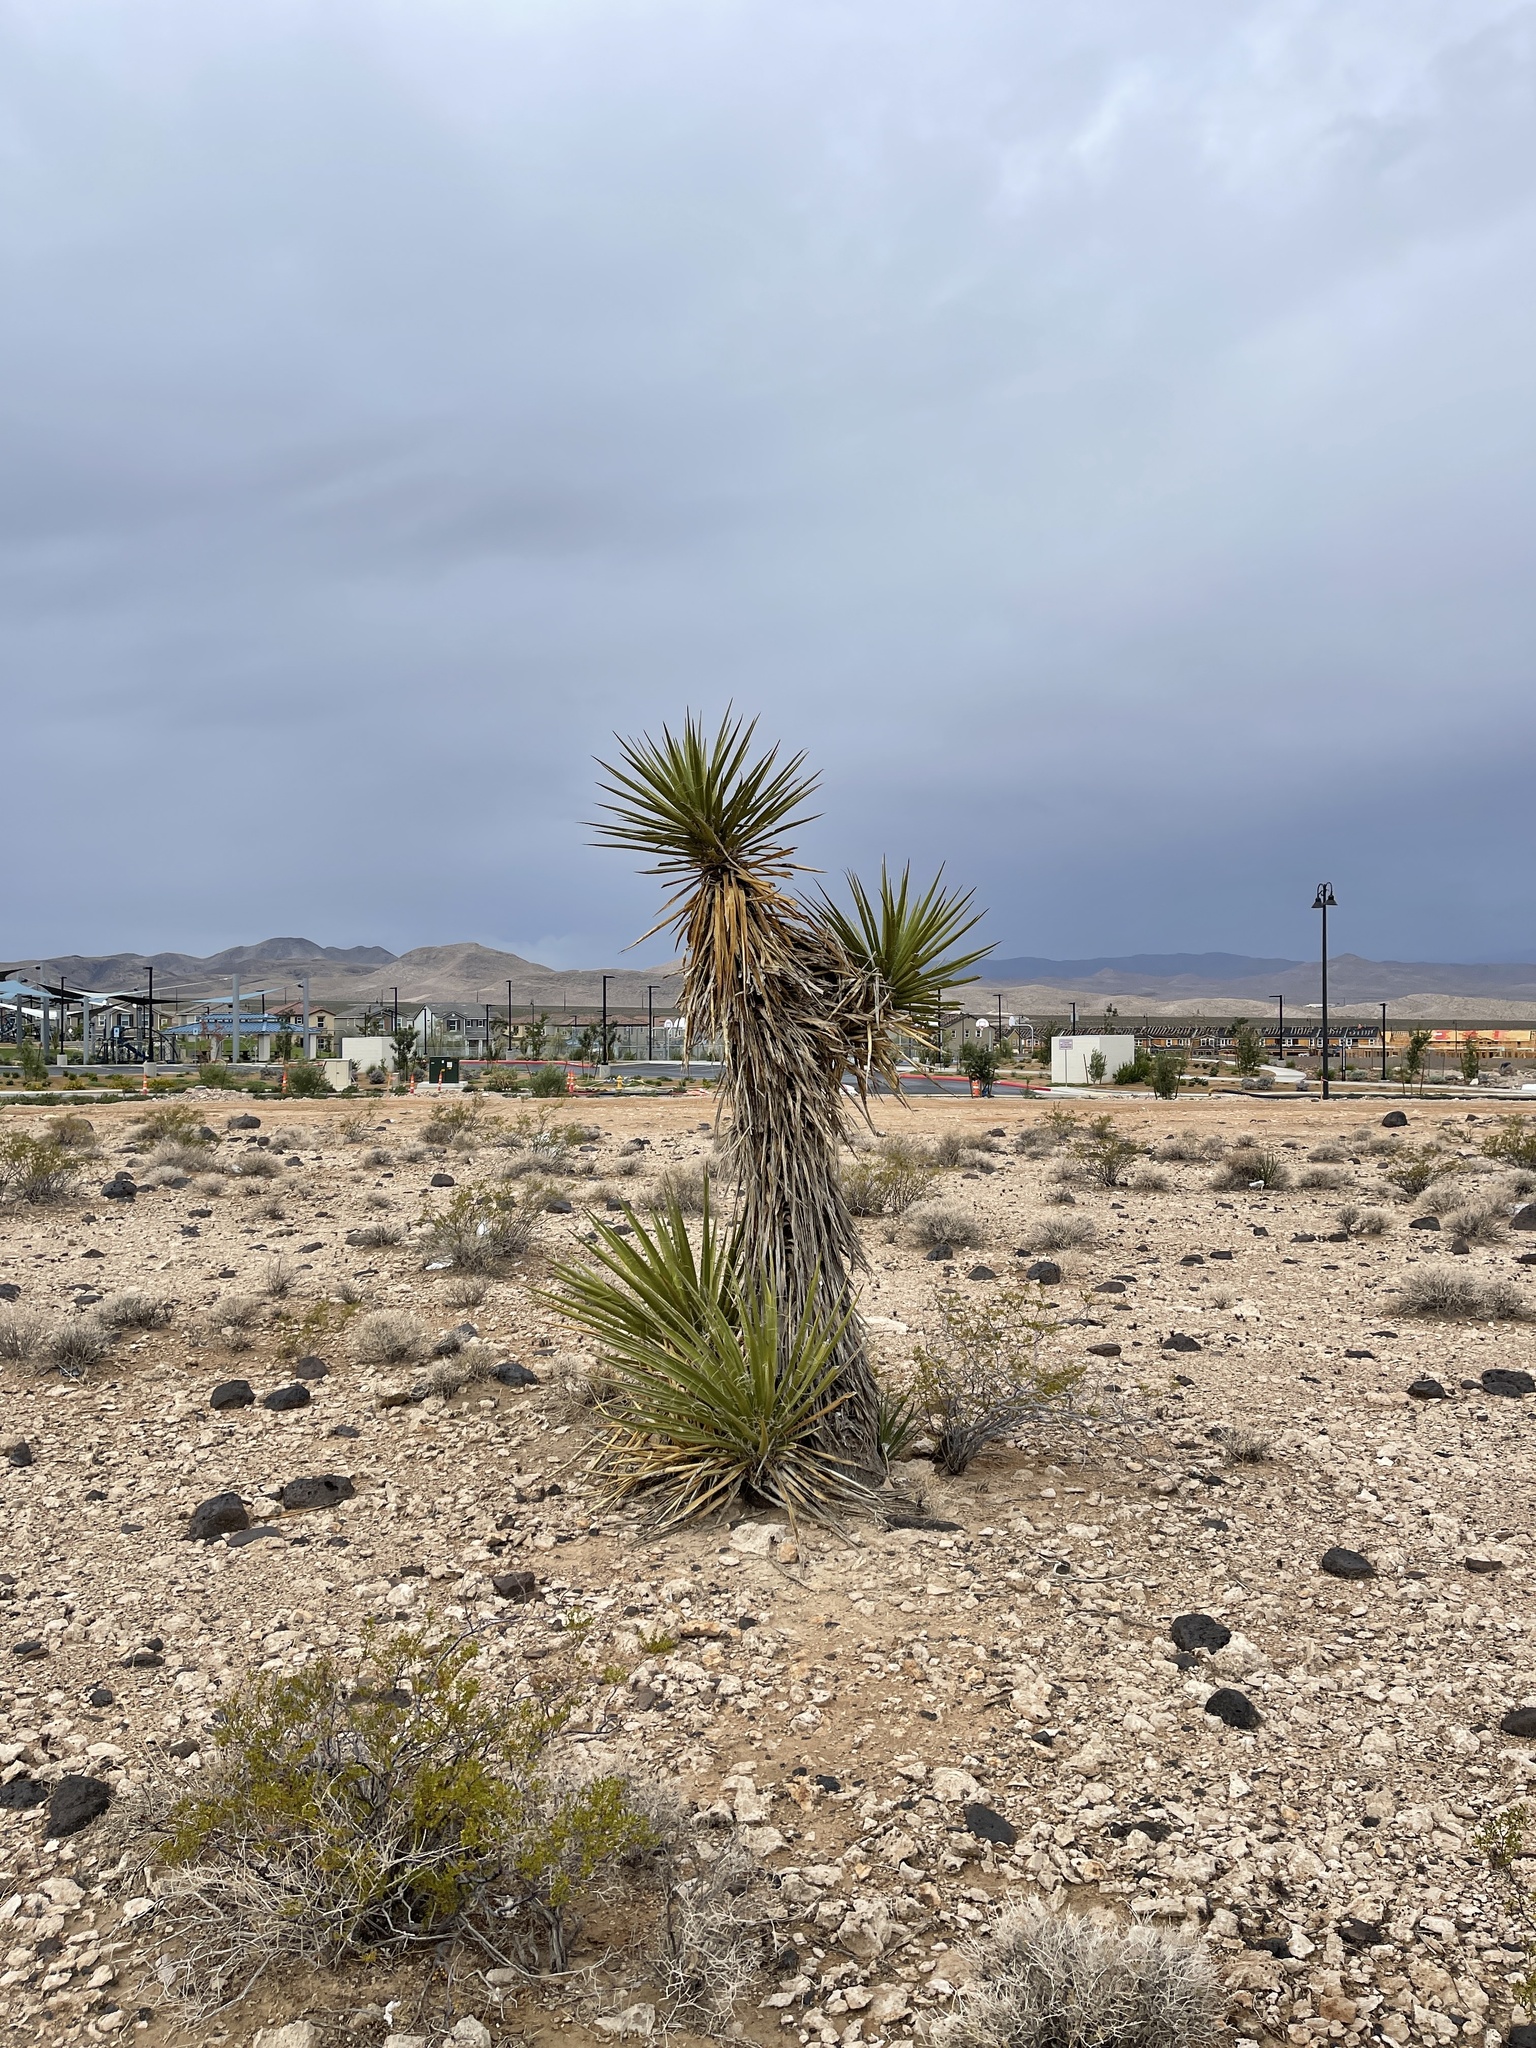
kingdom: Plantae
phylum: Tracheophyta
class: Liliopsida
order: Asparagales
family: Asparagaceae
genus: Yucca
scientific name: Yucca schidigera
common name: Mojave yucca
